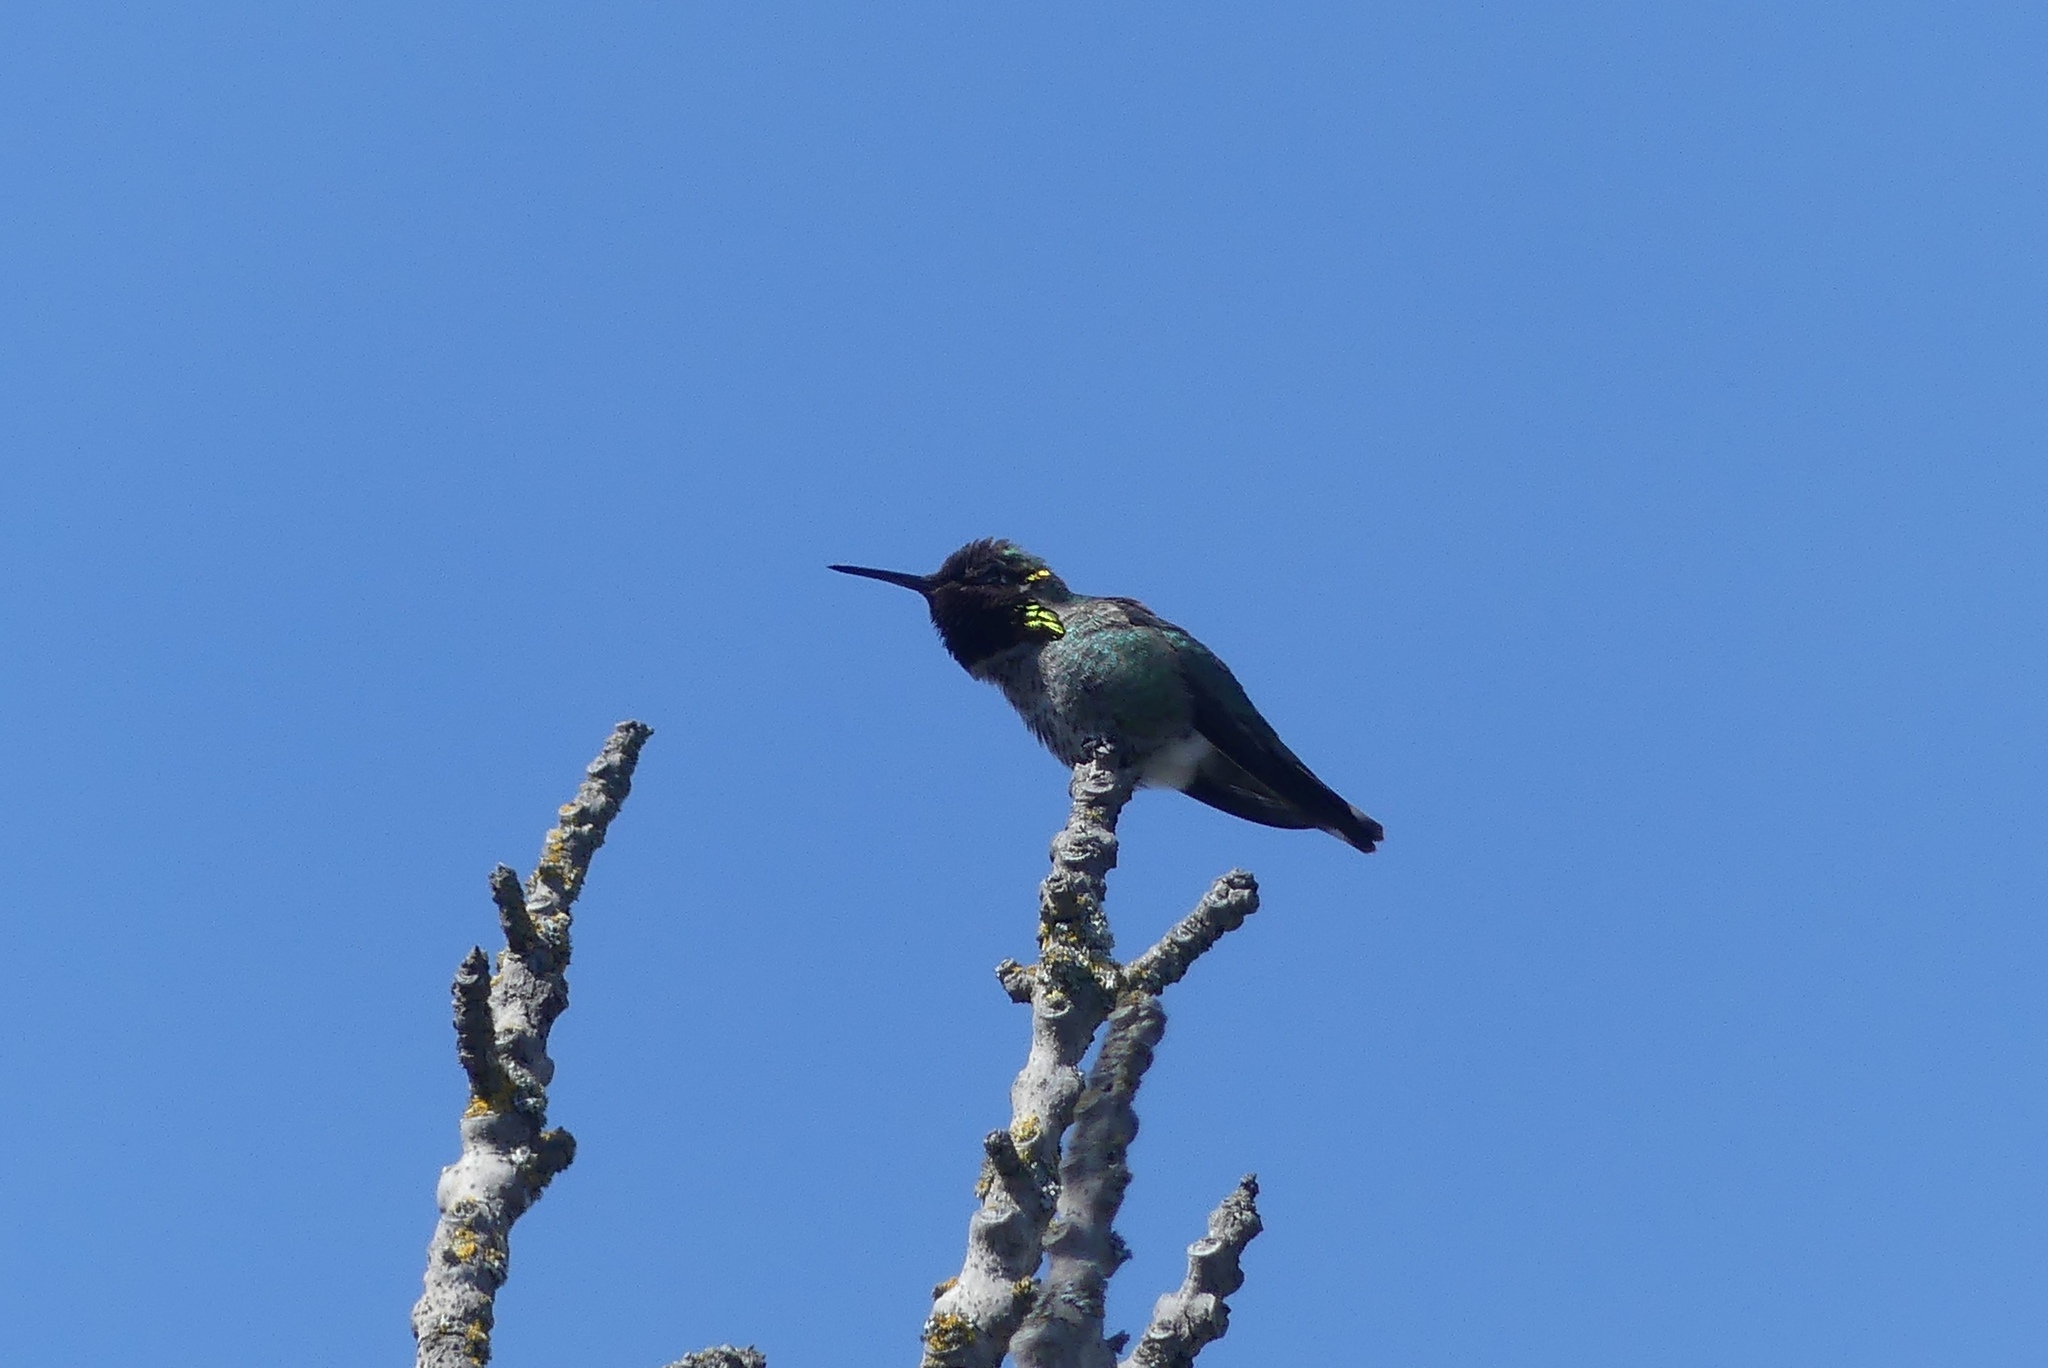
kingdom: Animalia
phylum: Chordata
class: Aves
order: Apodiformes
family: Trochilidae
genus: Calypte
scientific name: Calypte anna
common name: Anna's hummingbird
